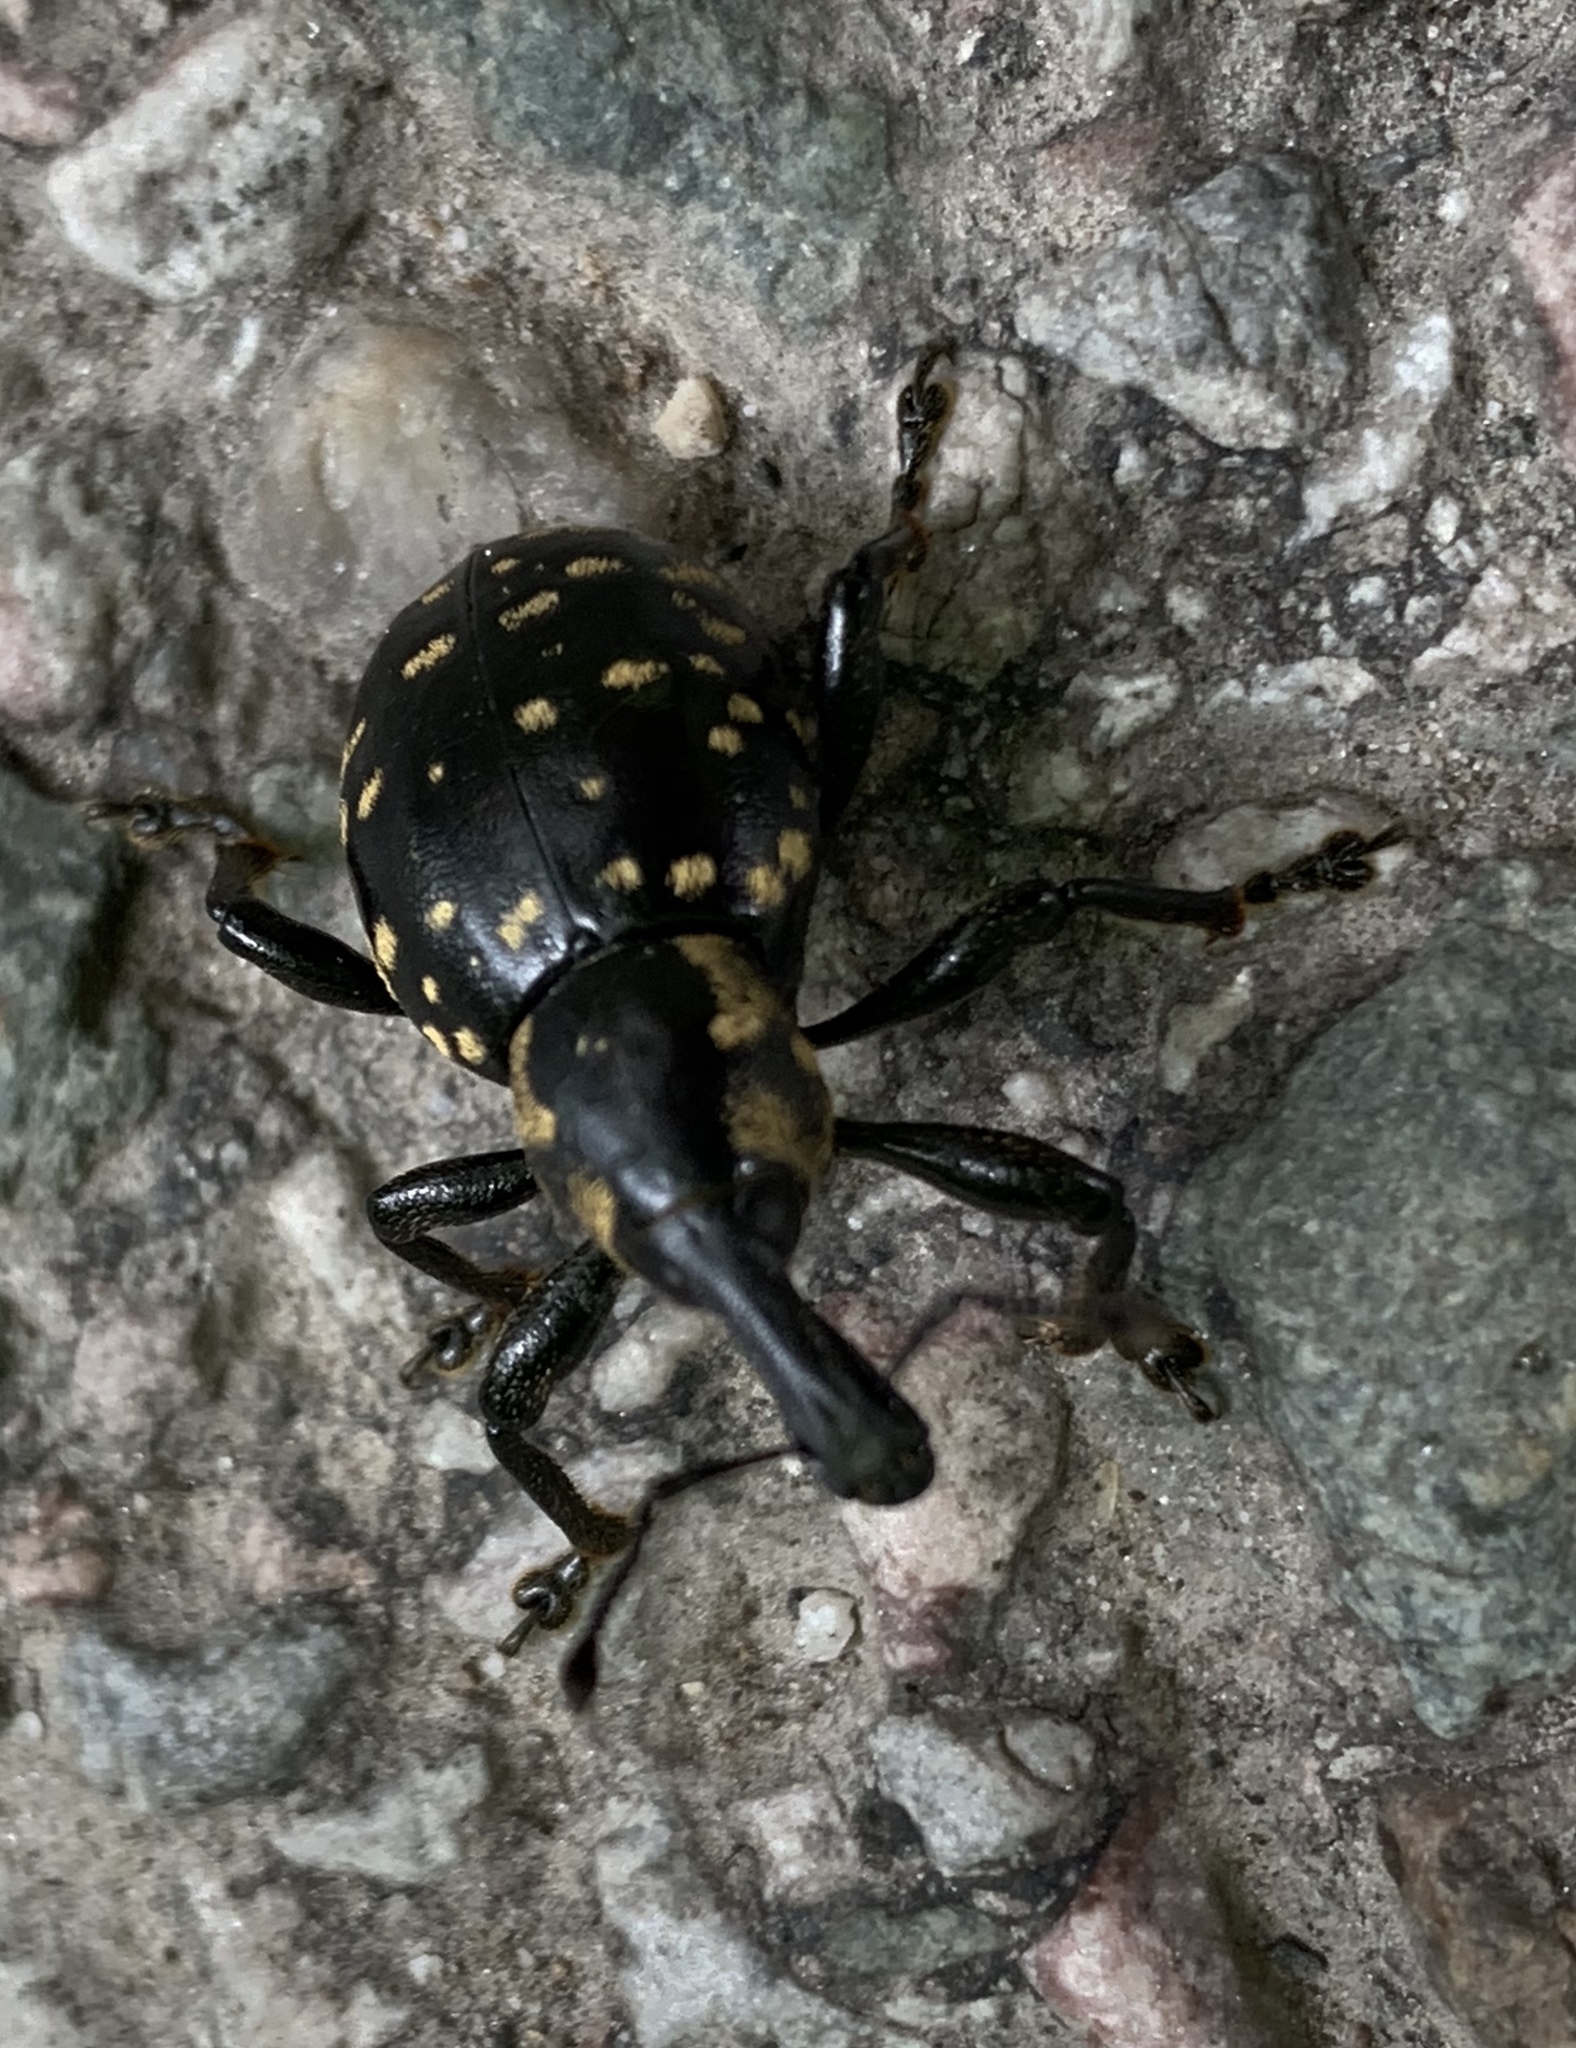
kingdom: Animalia
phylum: Arthropoda
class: Insecta
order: Coleoptera
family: Curculionidae
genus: Liparus
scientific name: Liparus glabrirostris
